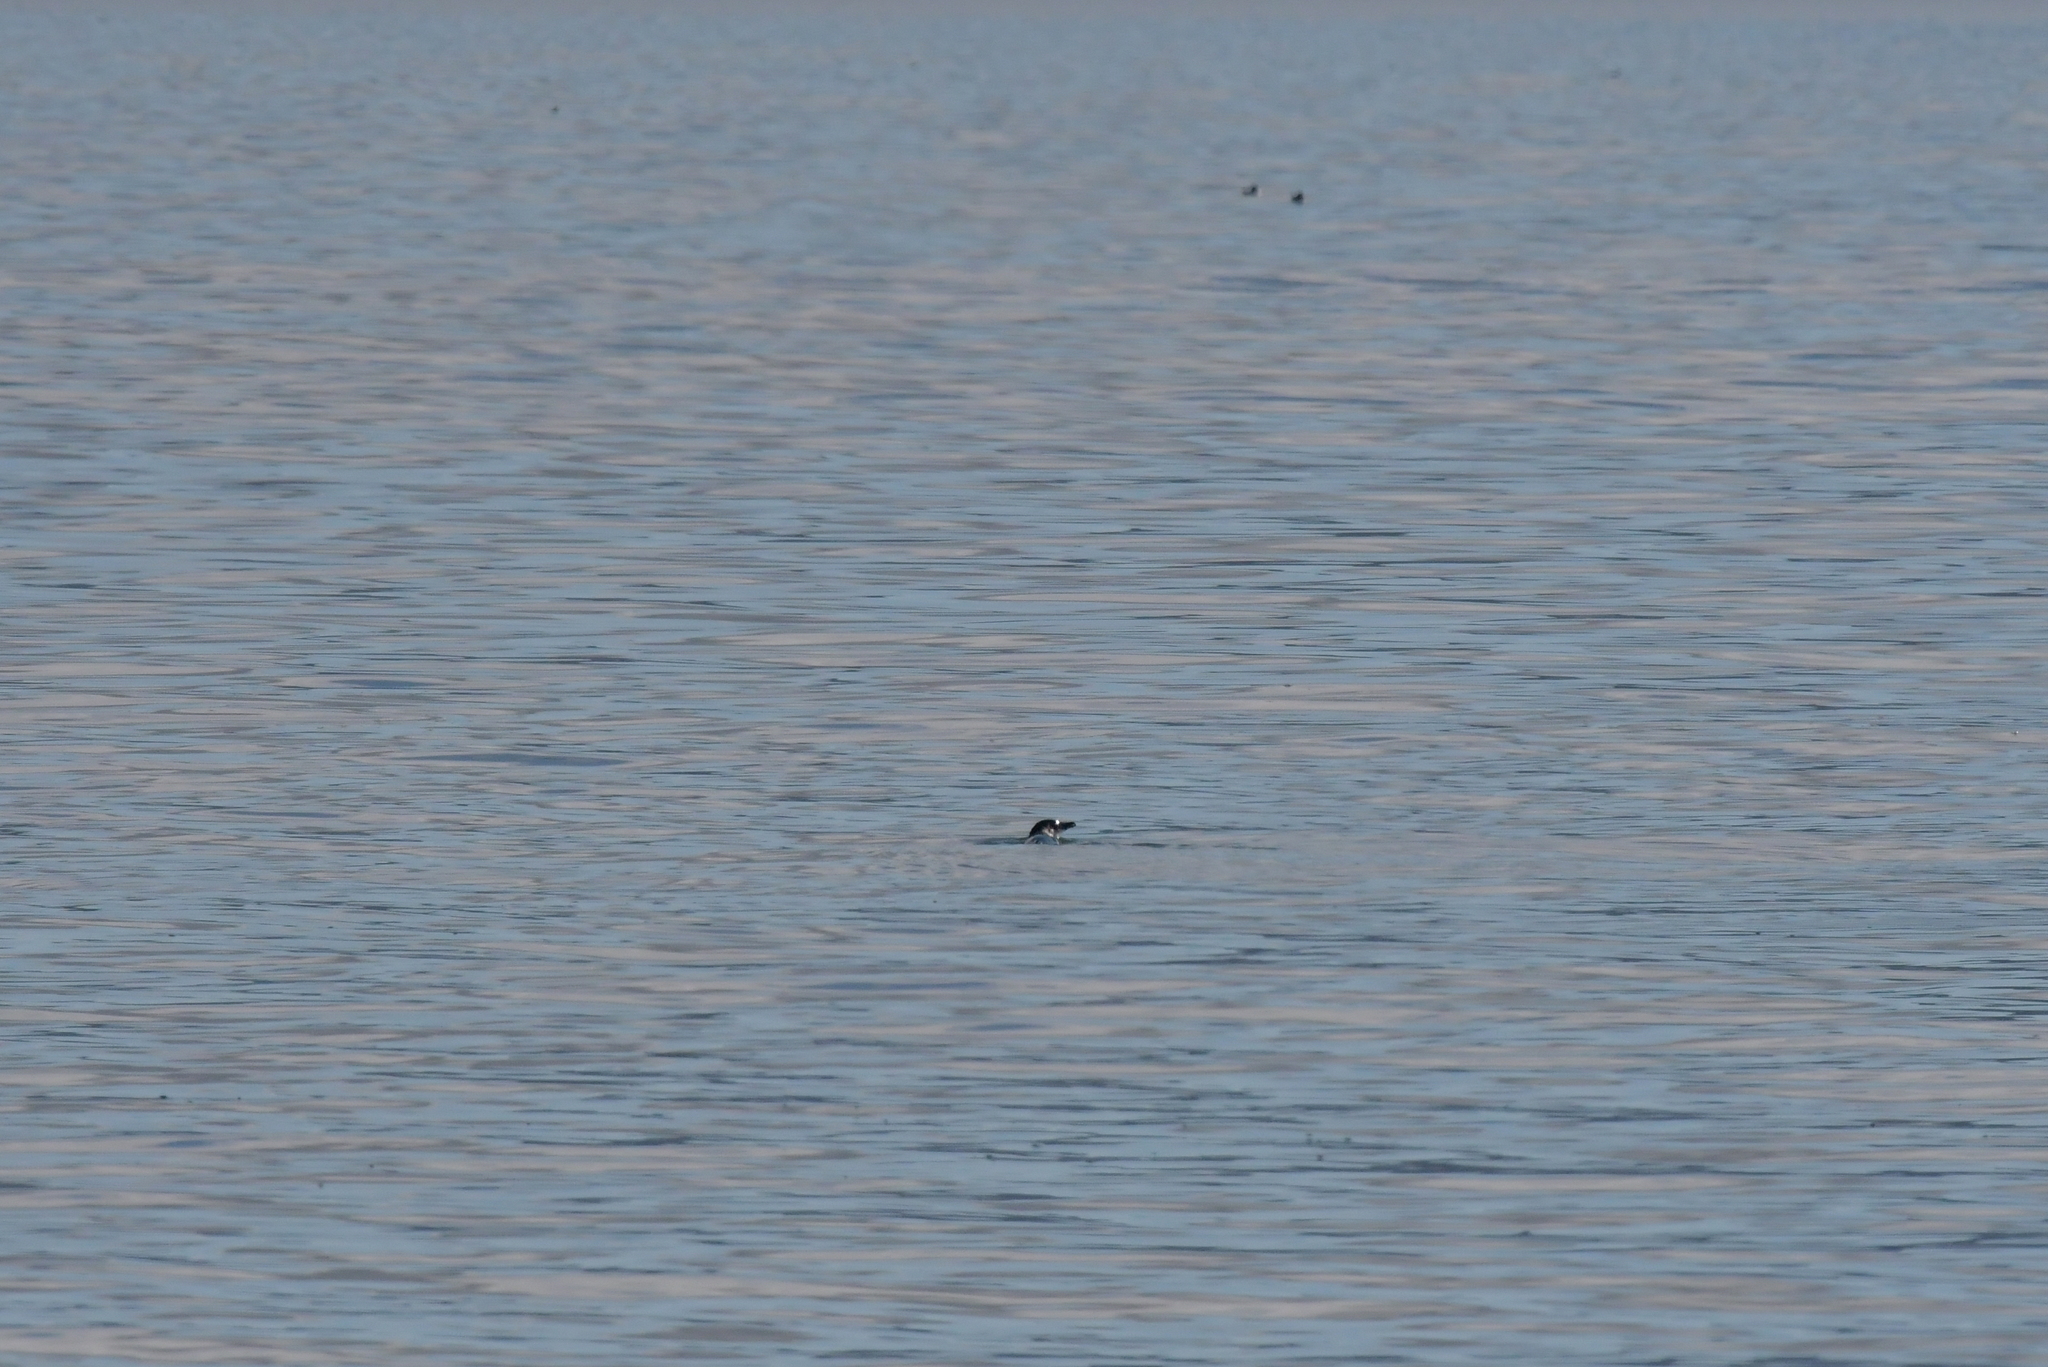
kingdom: Animalia
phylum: Chordata
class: Aves
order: Sphenisciformes
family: Spheniscidae
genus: Eudyptula
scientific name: Eudyptula minor
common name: Little penguin
